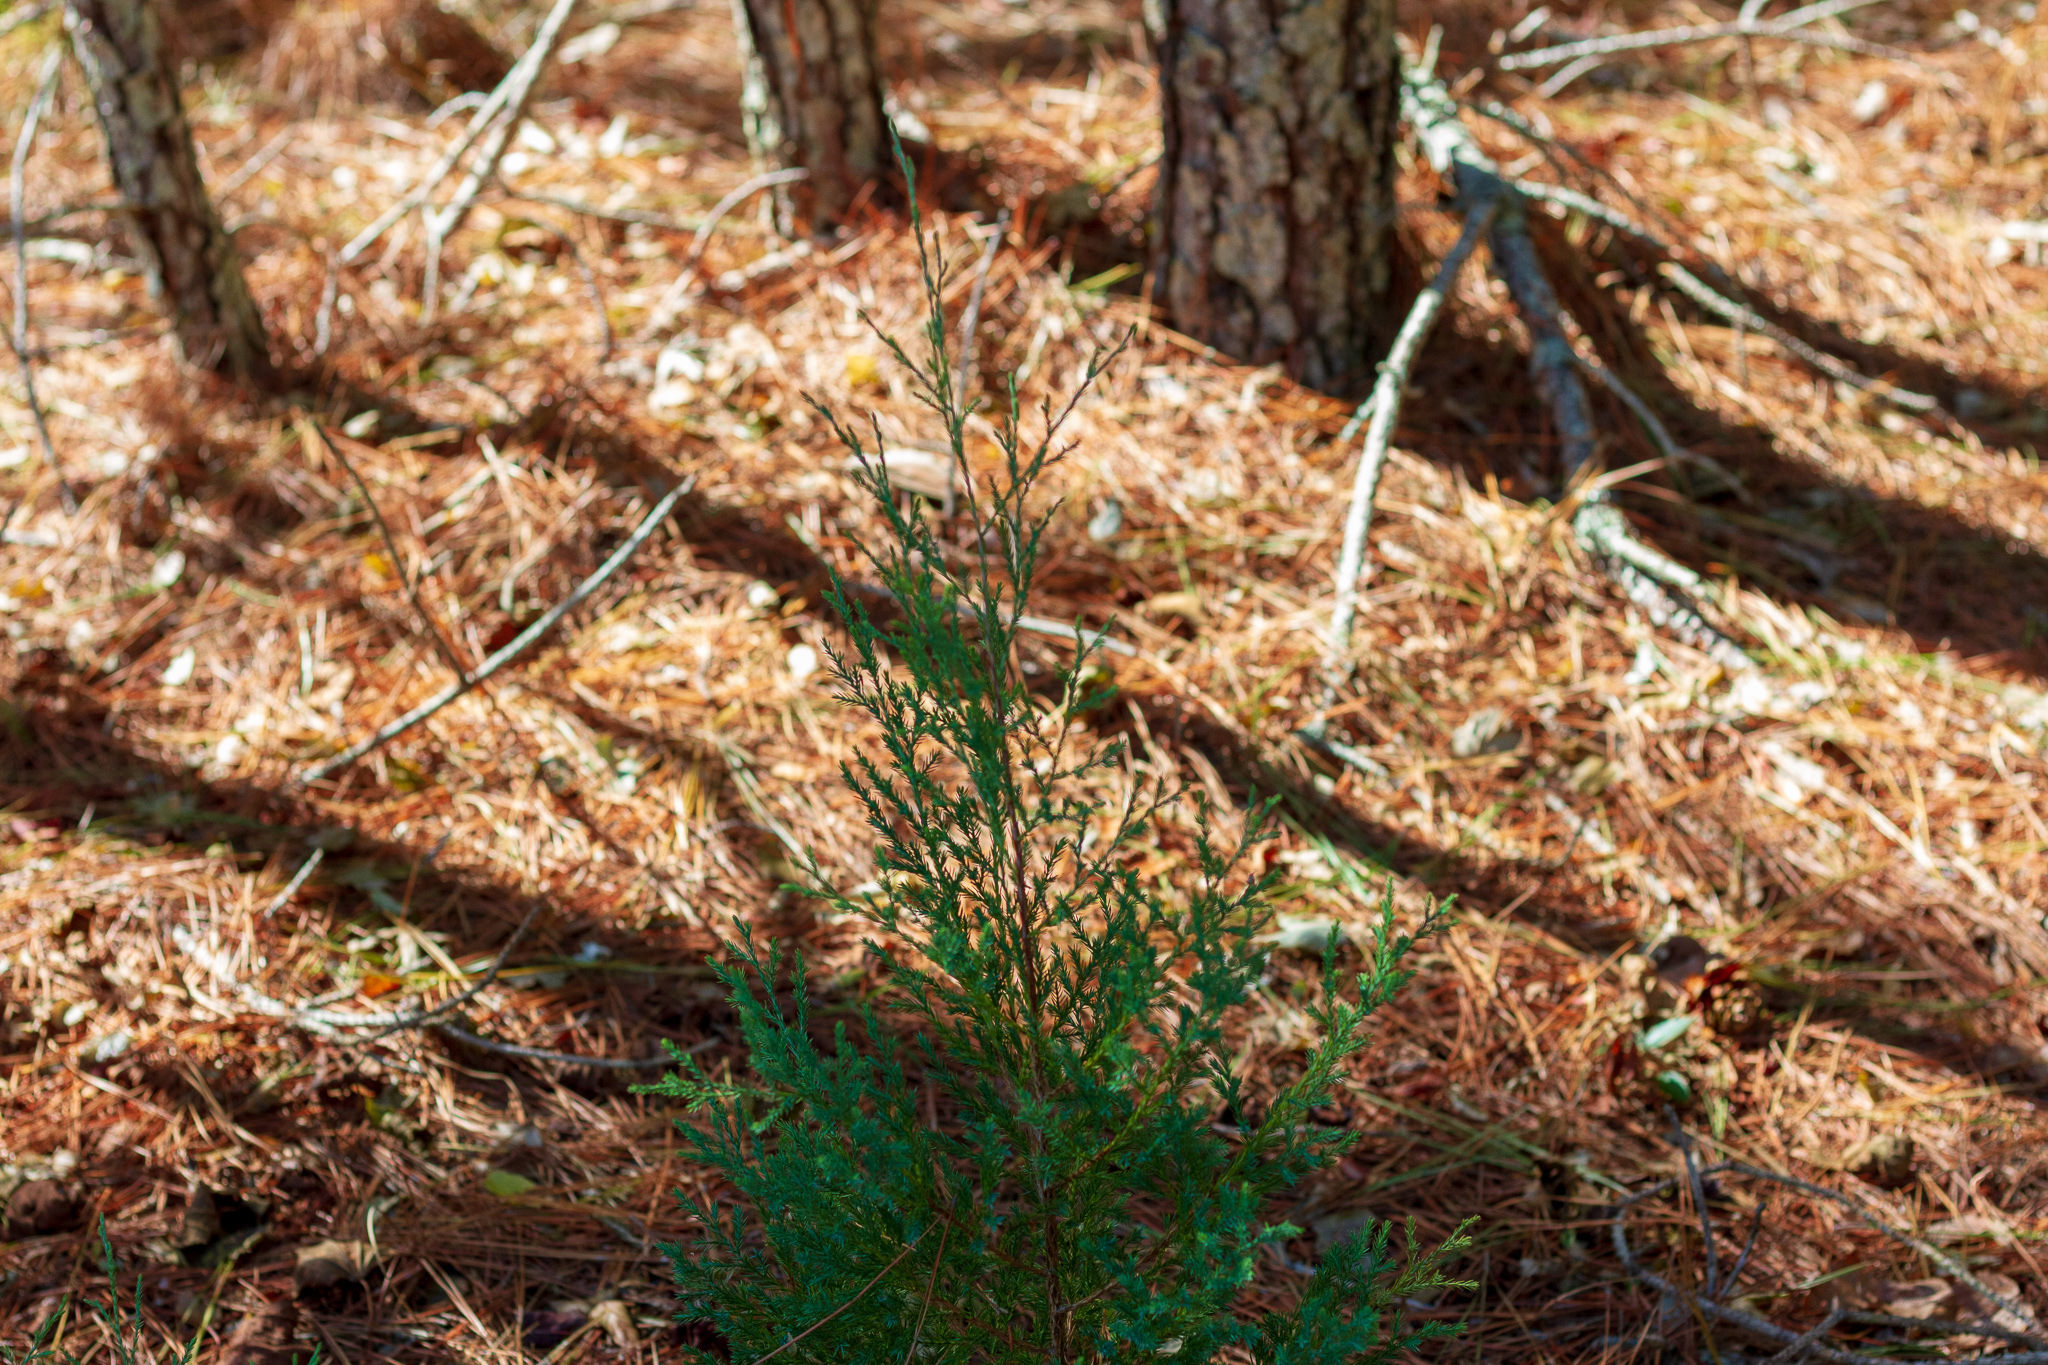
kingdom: Plantae
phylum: Tracheophyta
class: Pinopsida
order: Pinales
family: Cupressaceae
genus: Juniperus
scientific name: Juniperus virginiana
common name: Red juniper
